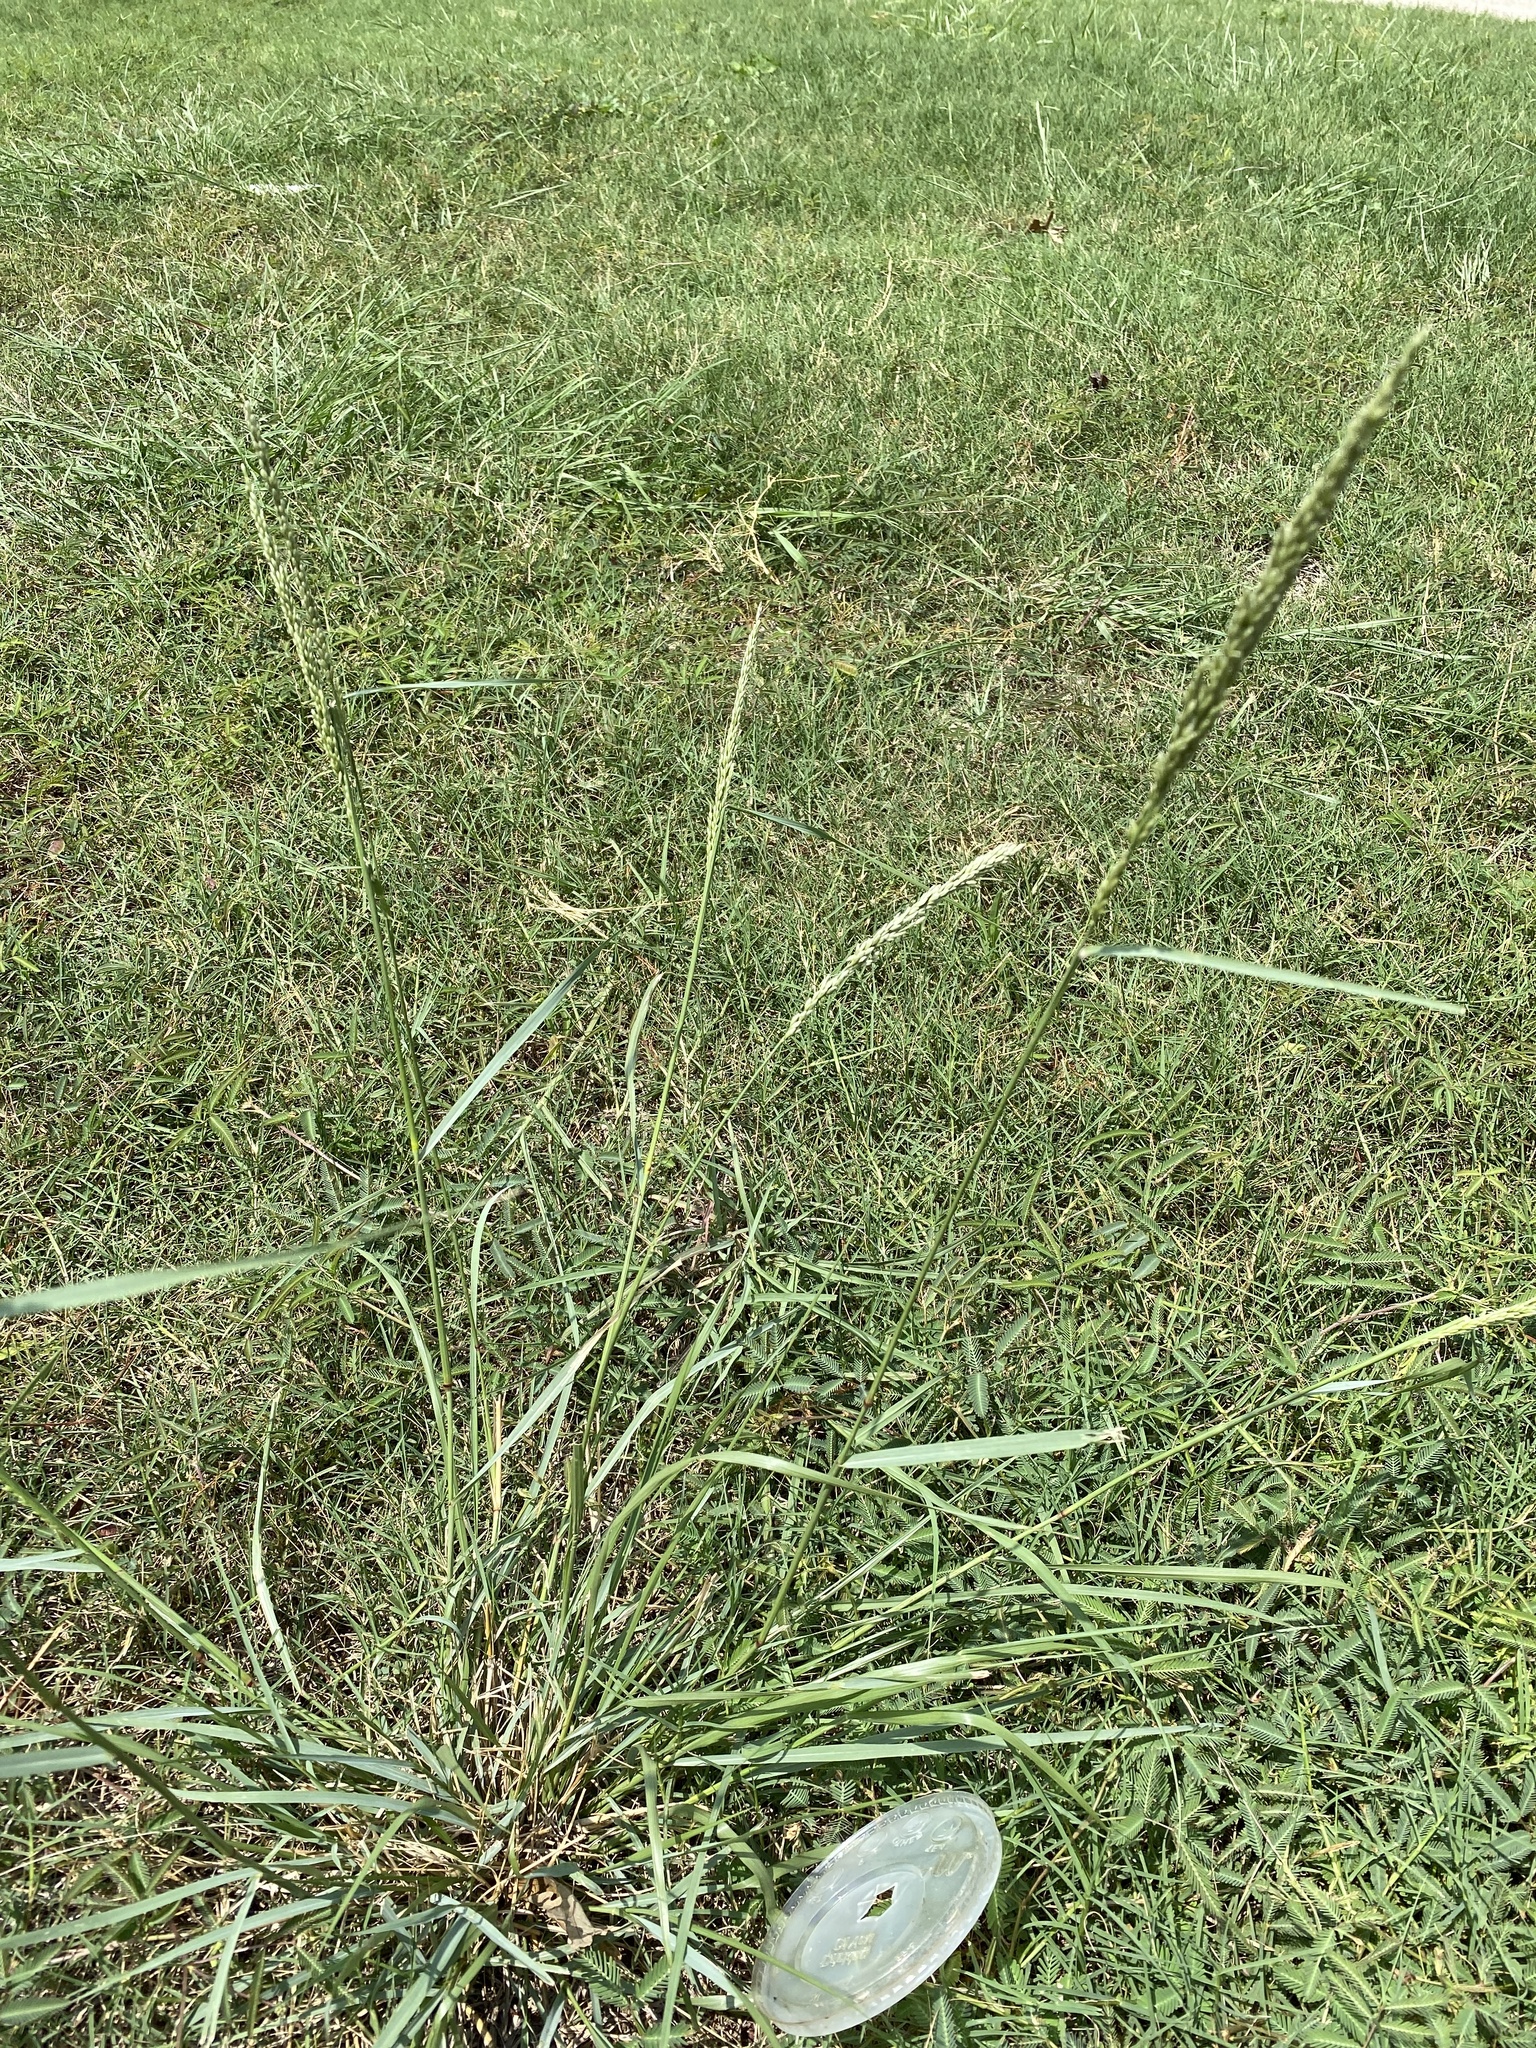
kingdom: Plantae
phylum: Tracheophyta
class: Liliopsida
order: Poales
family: Poaceae
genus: Tridens
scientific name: Tridens albescens
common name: White tridens
